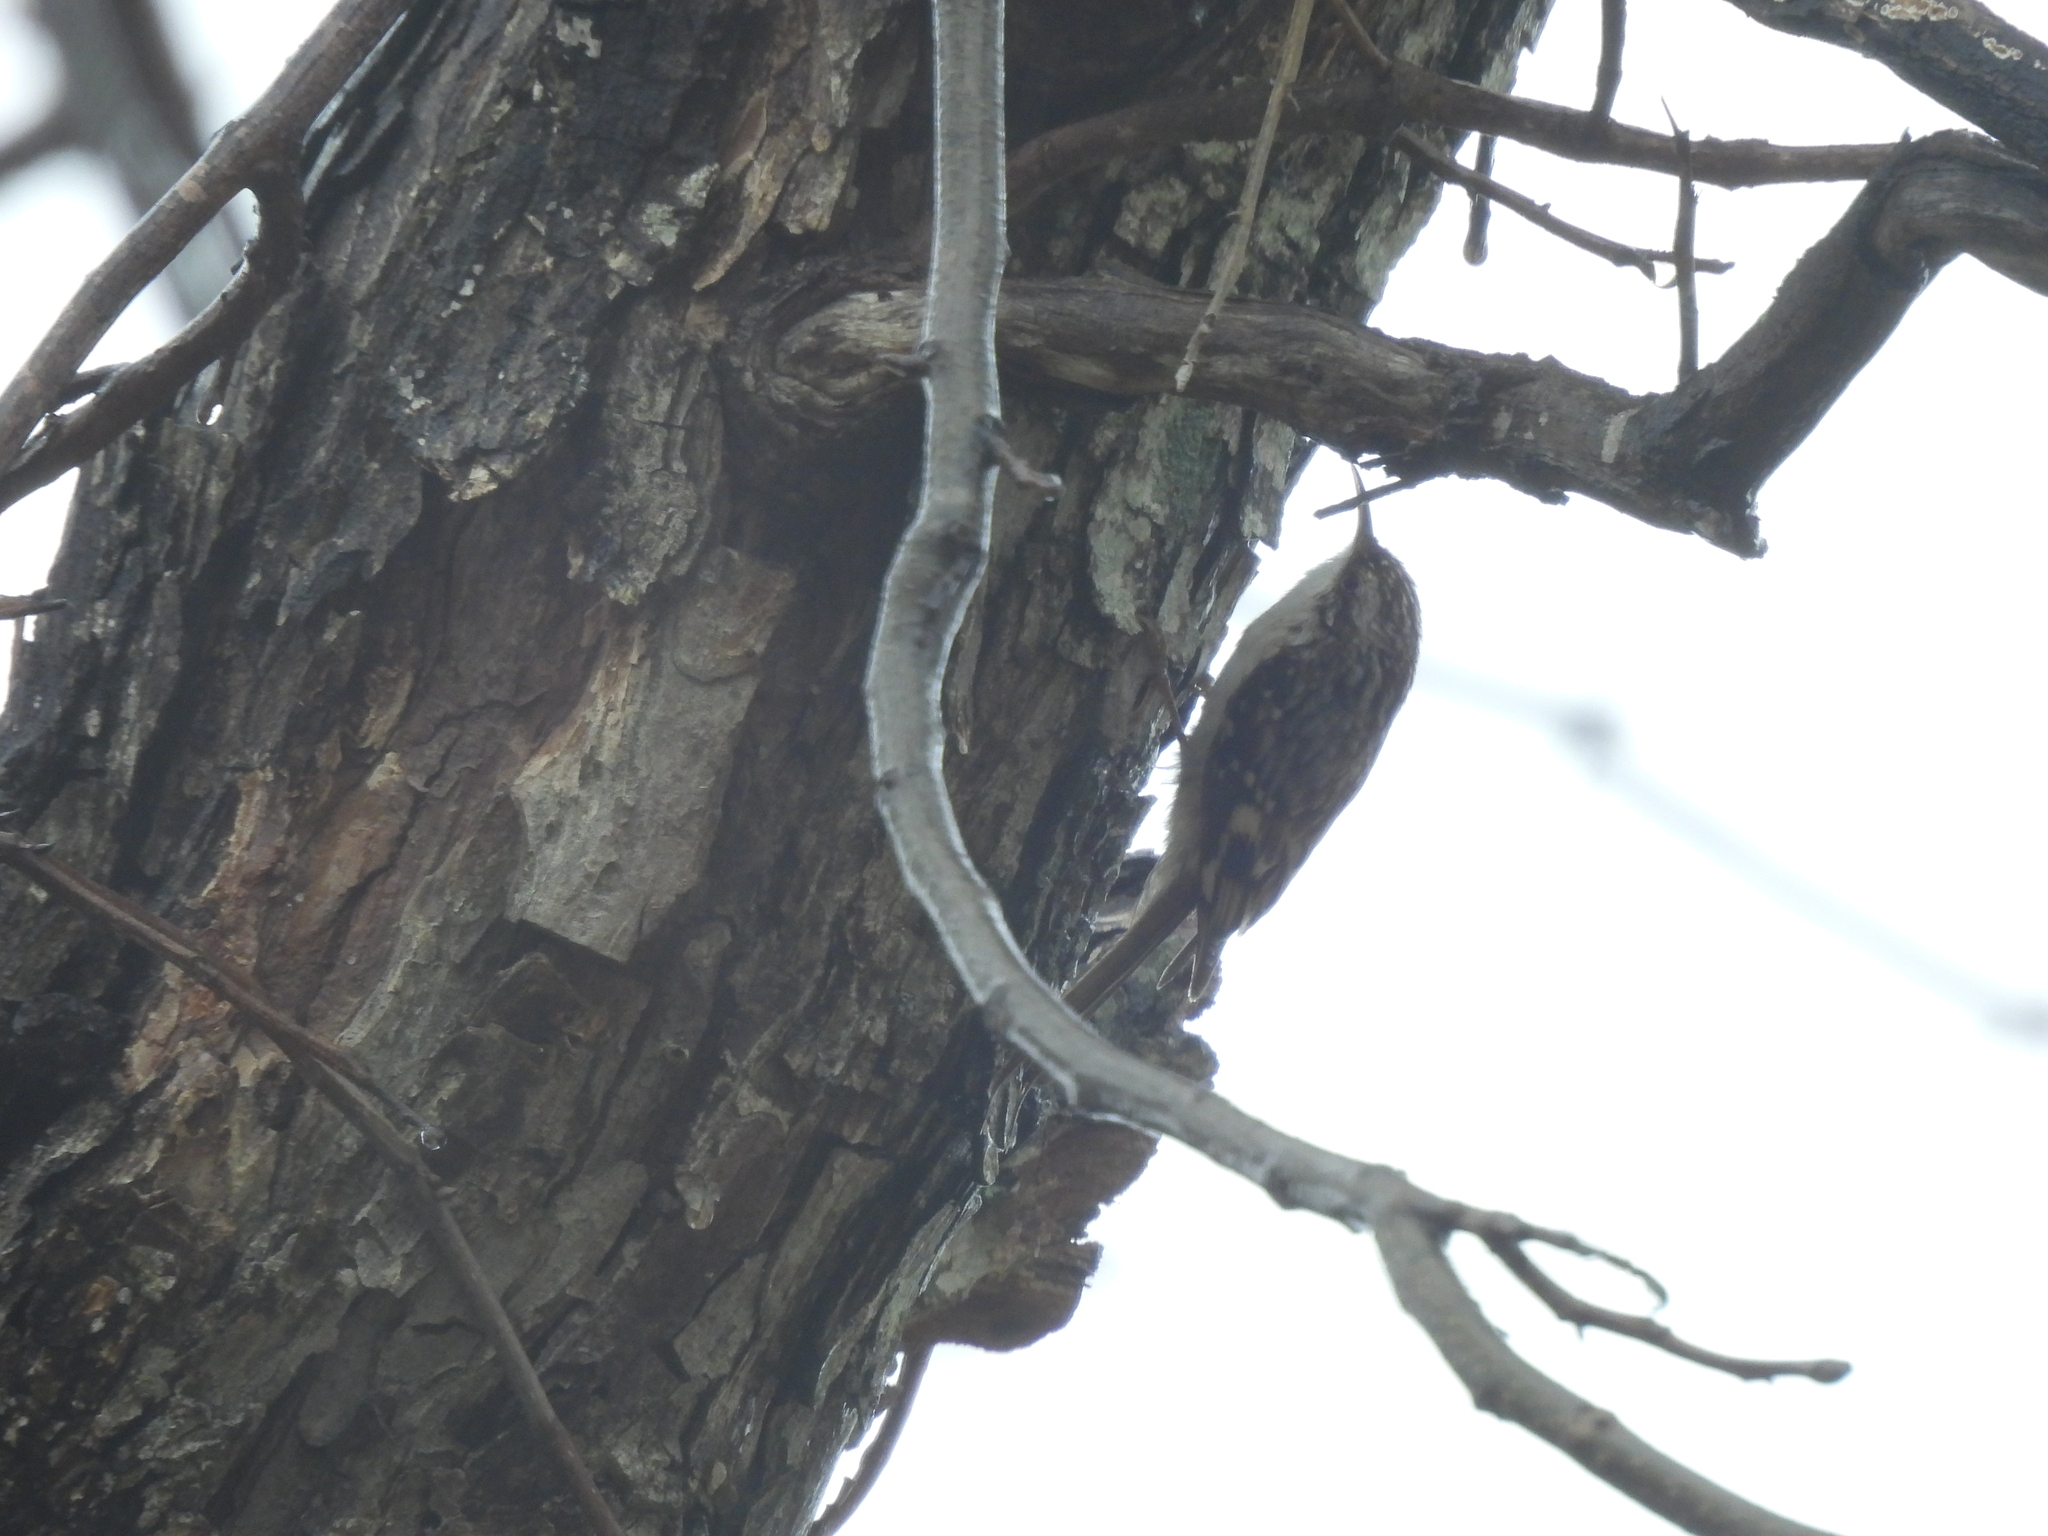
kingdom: Animalia
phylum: Chordata
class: Aves
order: Passeriformes
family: Certhiidae
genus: Certhia
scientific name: Certhia americana
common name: Brown creeper
